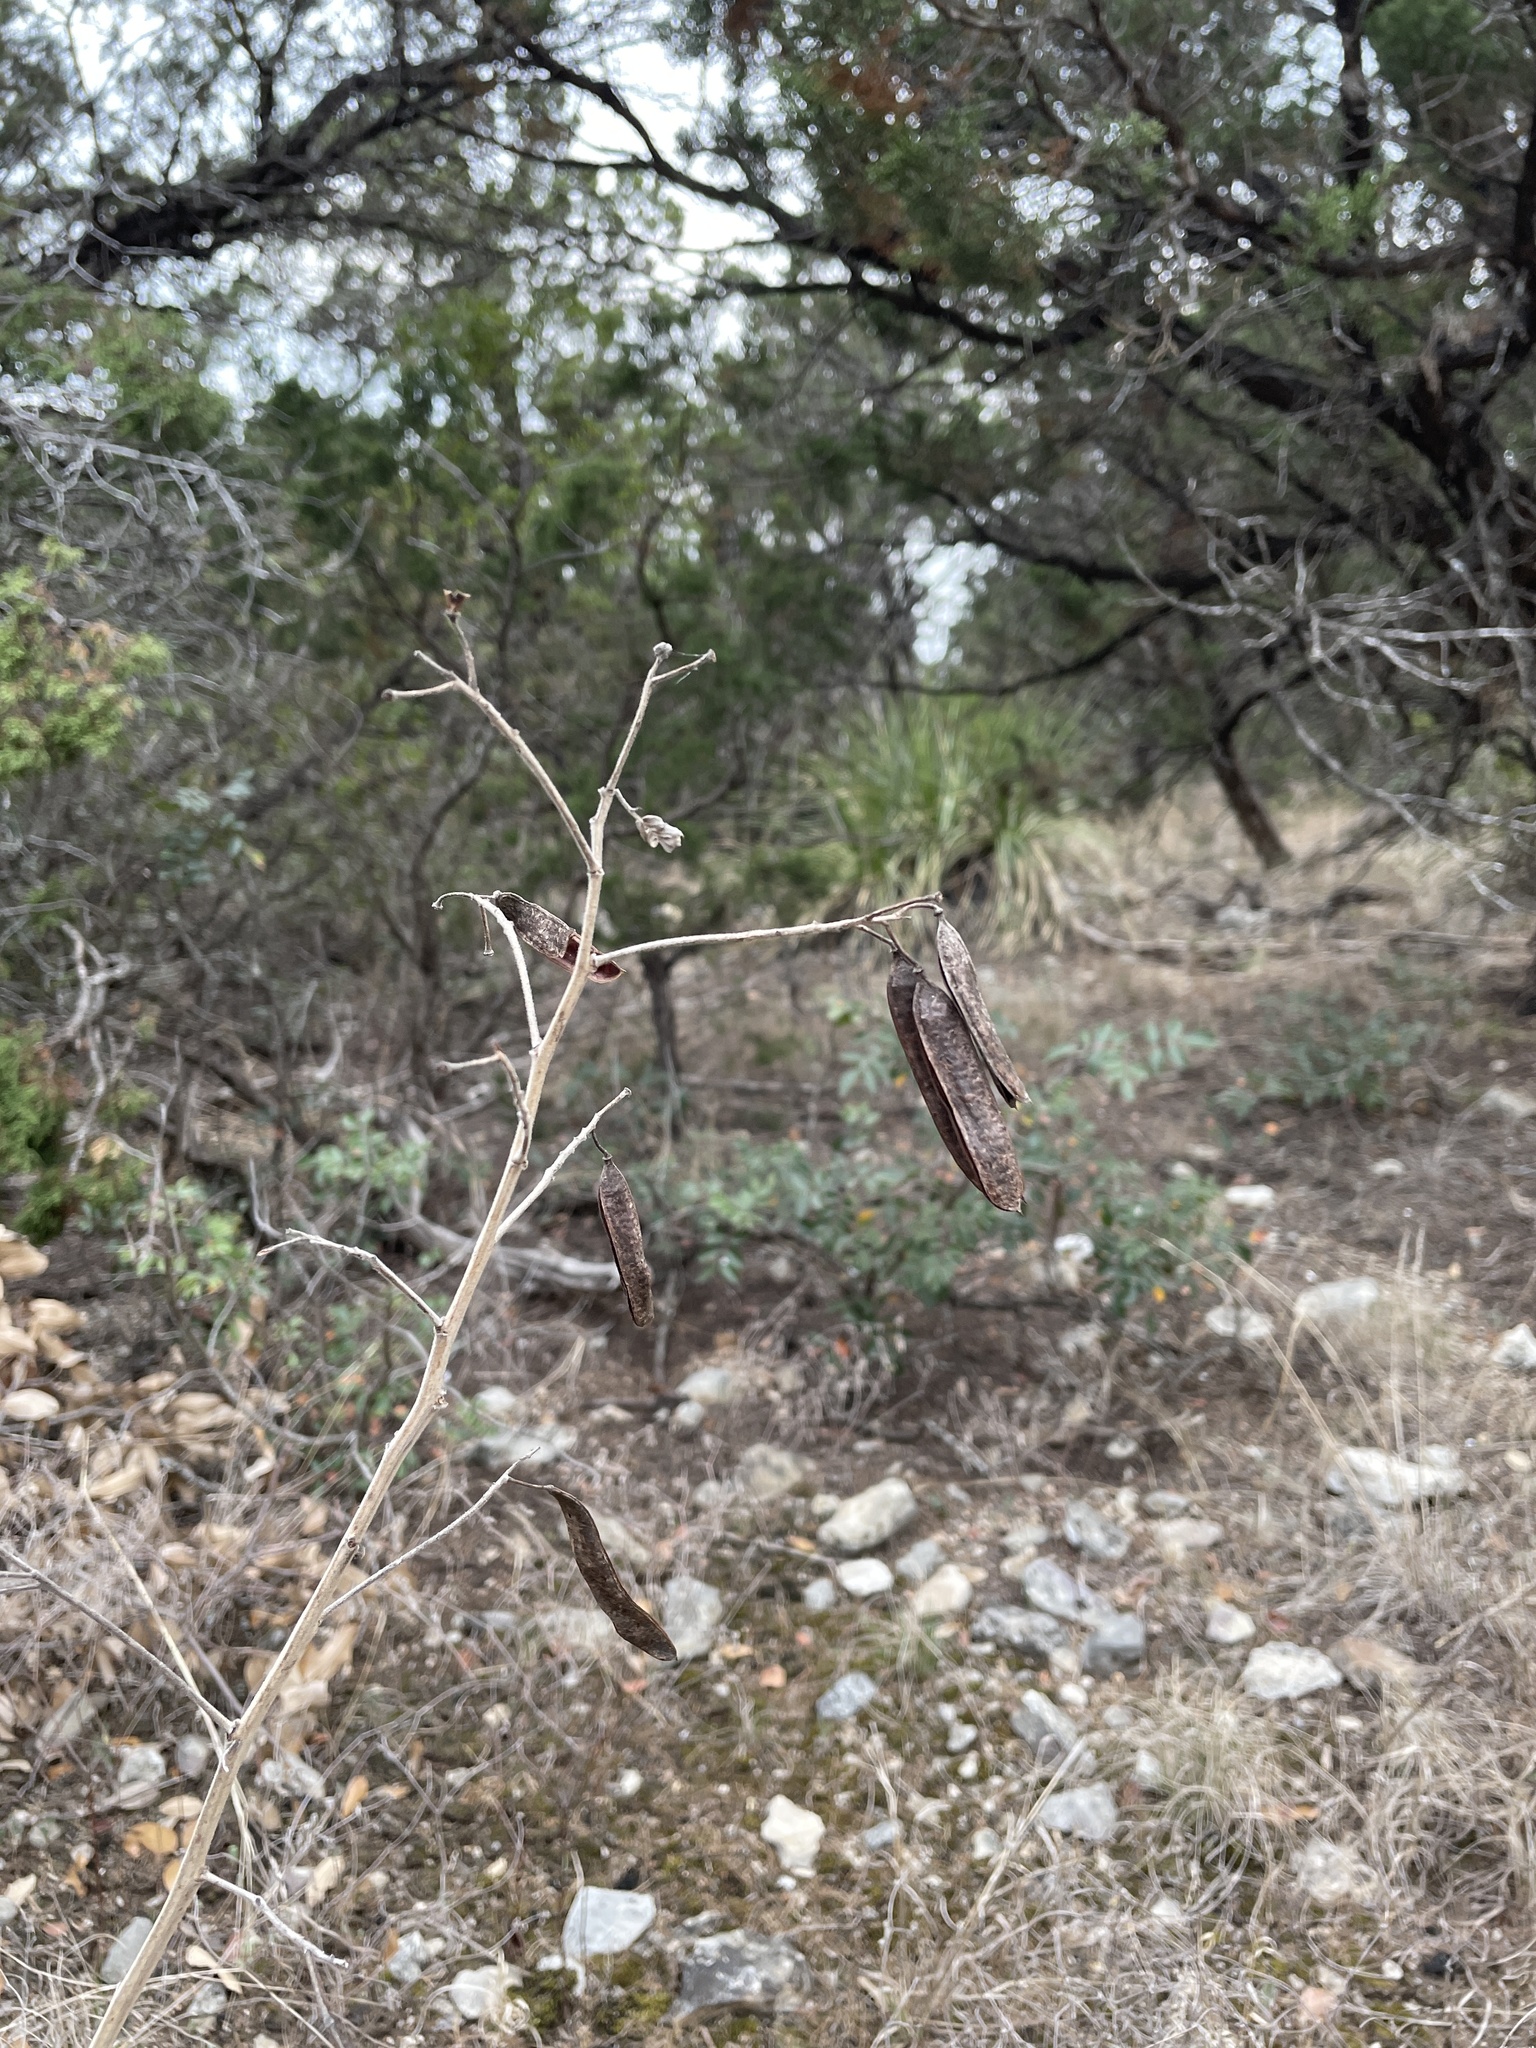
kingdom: Plantae
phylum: Tracheophyta
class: Magnoliopsida
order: Fabales
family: Fabaceae
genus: Senna
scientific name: Senna lindheimeriana
